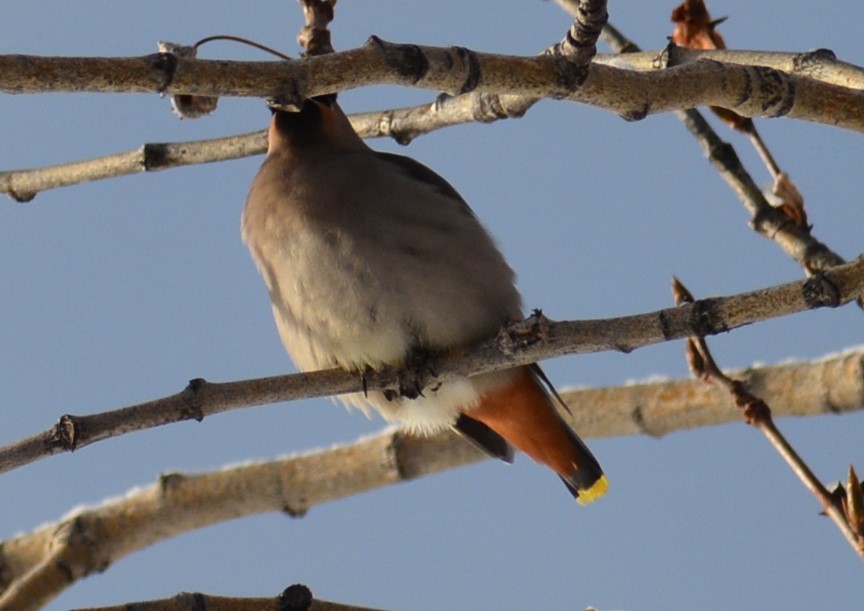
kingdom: Animalia
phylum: Chordata
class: Aves
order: Passeriformes
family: Bombycillidae
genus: Bombycilla
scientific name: Bombycilla garrulus
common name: Bohemian waxwing
